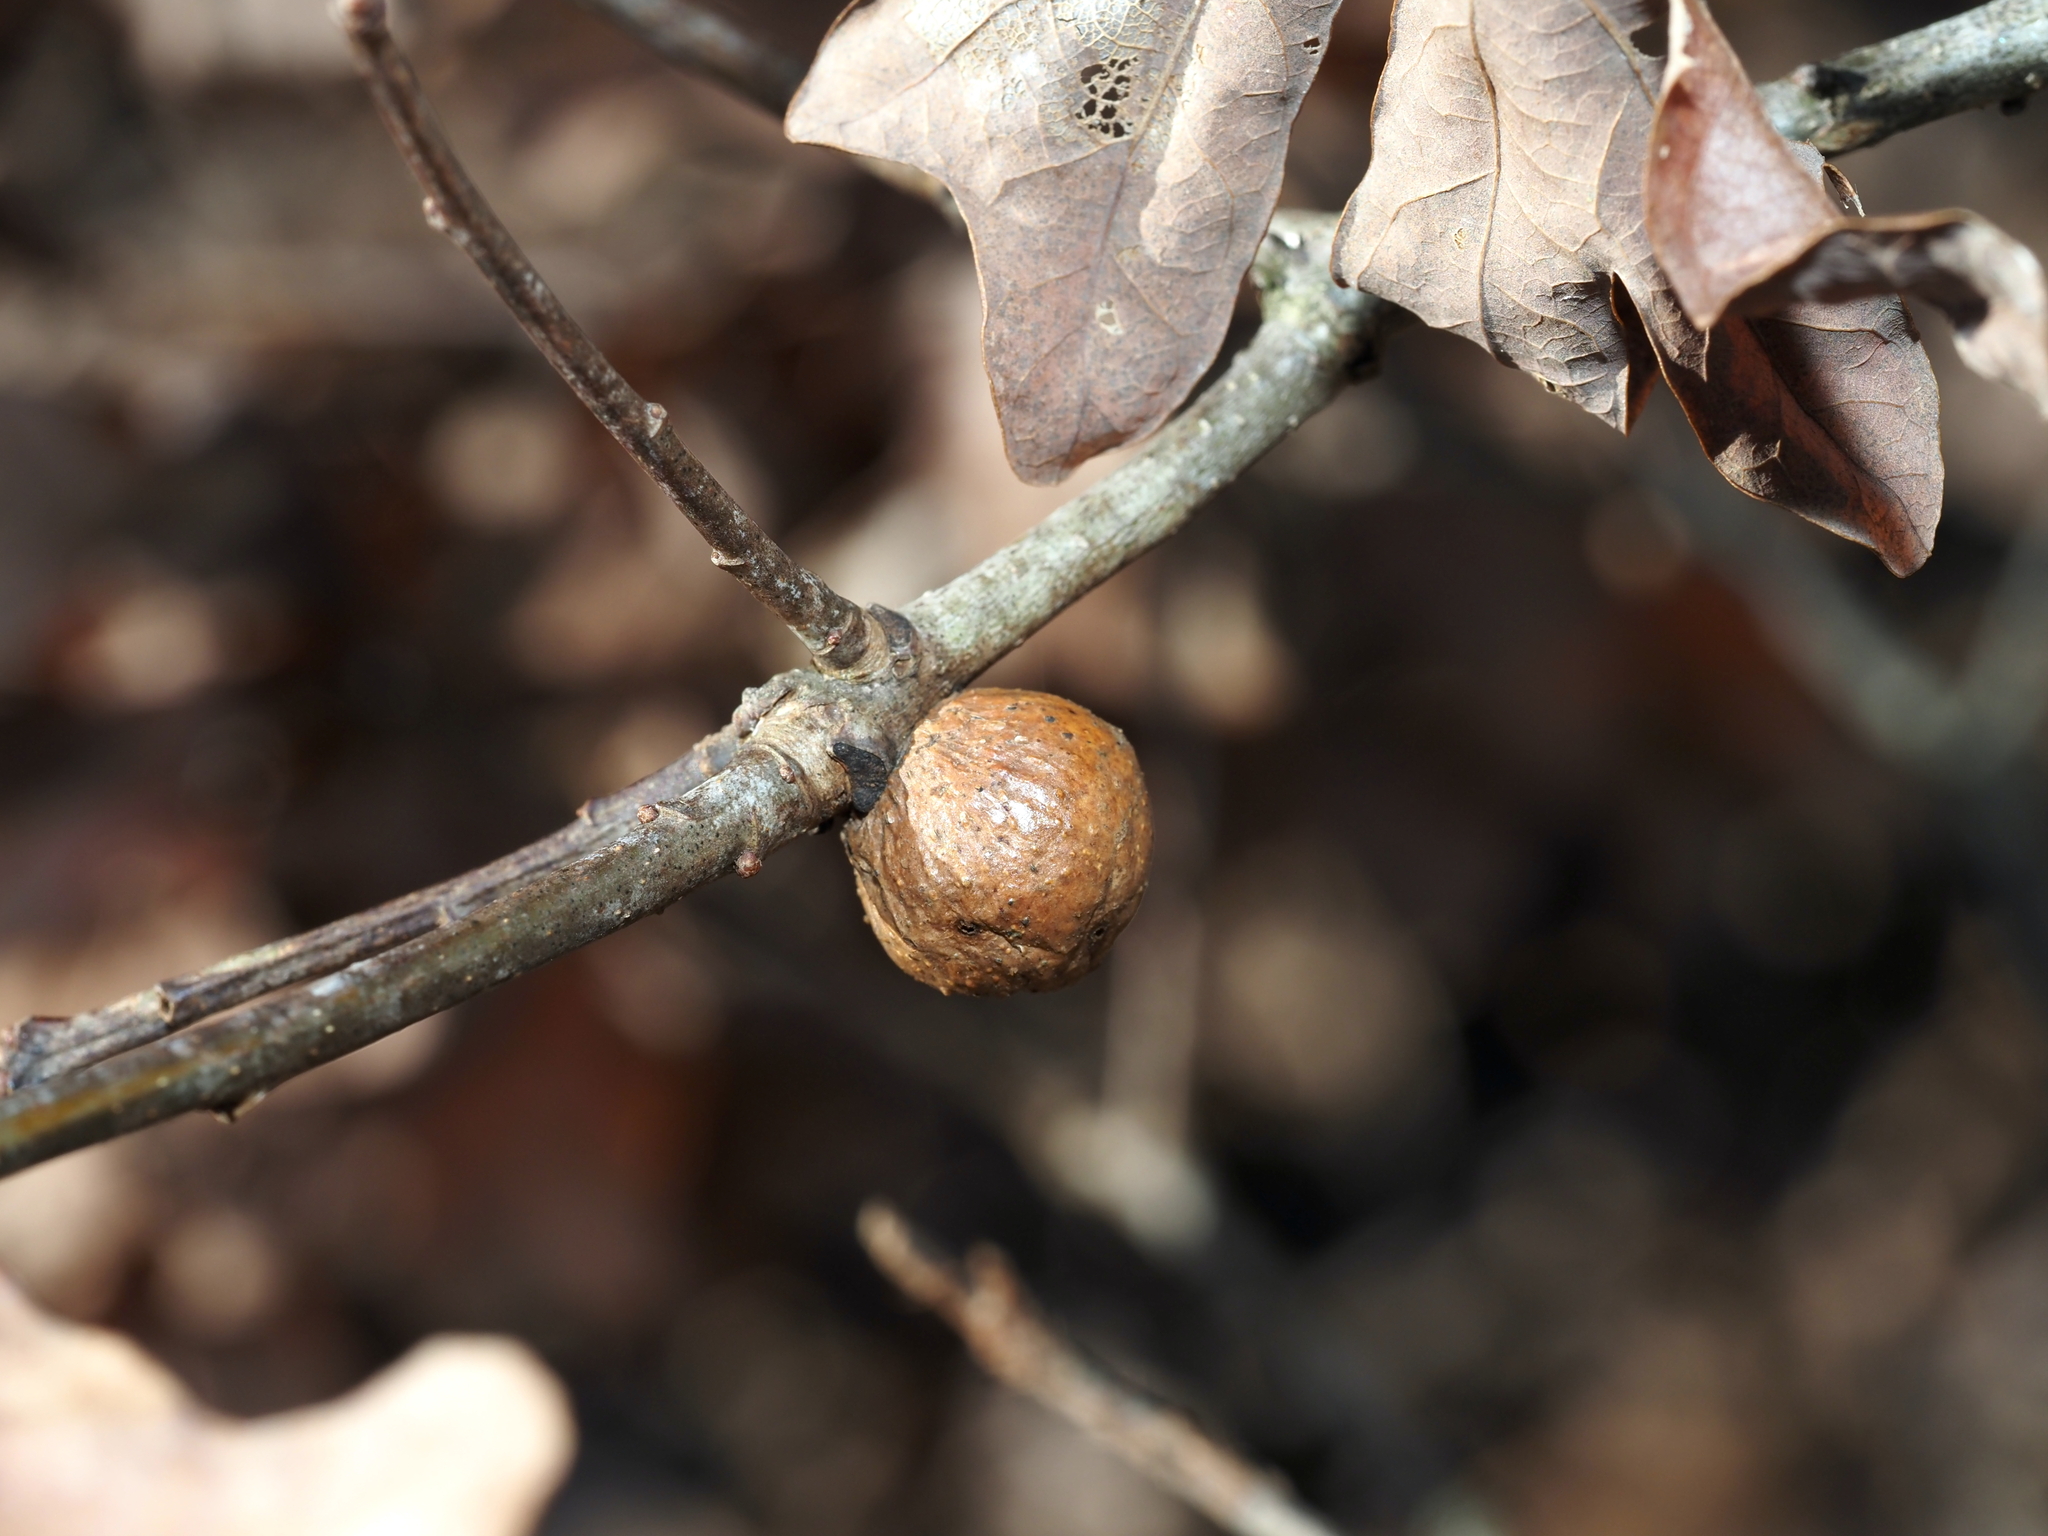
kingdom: Animalia
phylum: Arthropoda
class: Insecta
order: Hymenoptera
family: Cynipidae
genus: Disholcaspis
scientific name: Disholcaspis quercusglobulus
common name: Round bullet gall wasp
